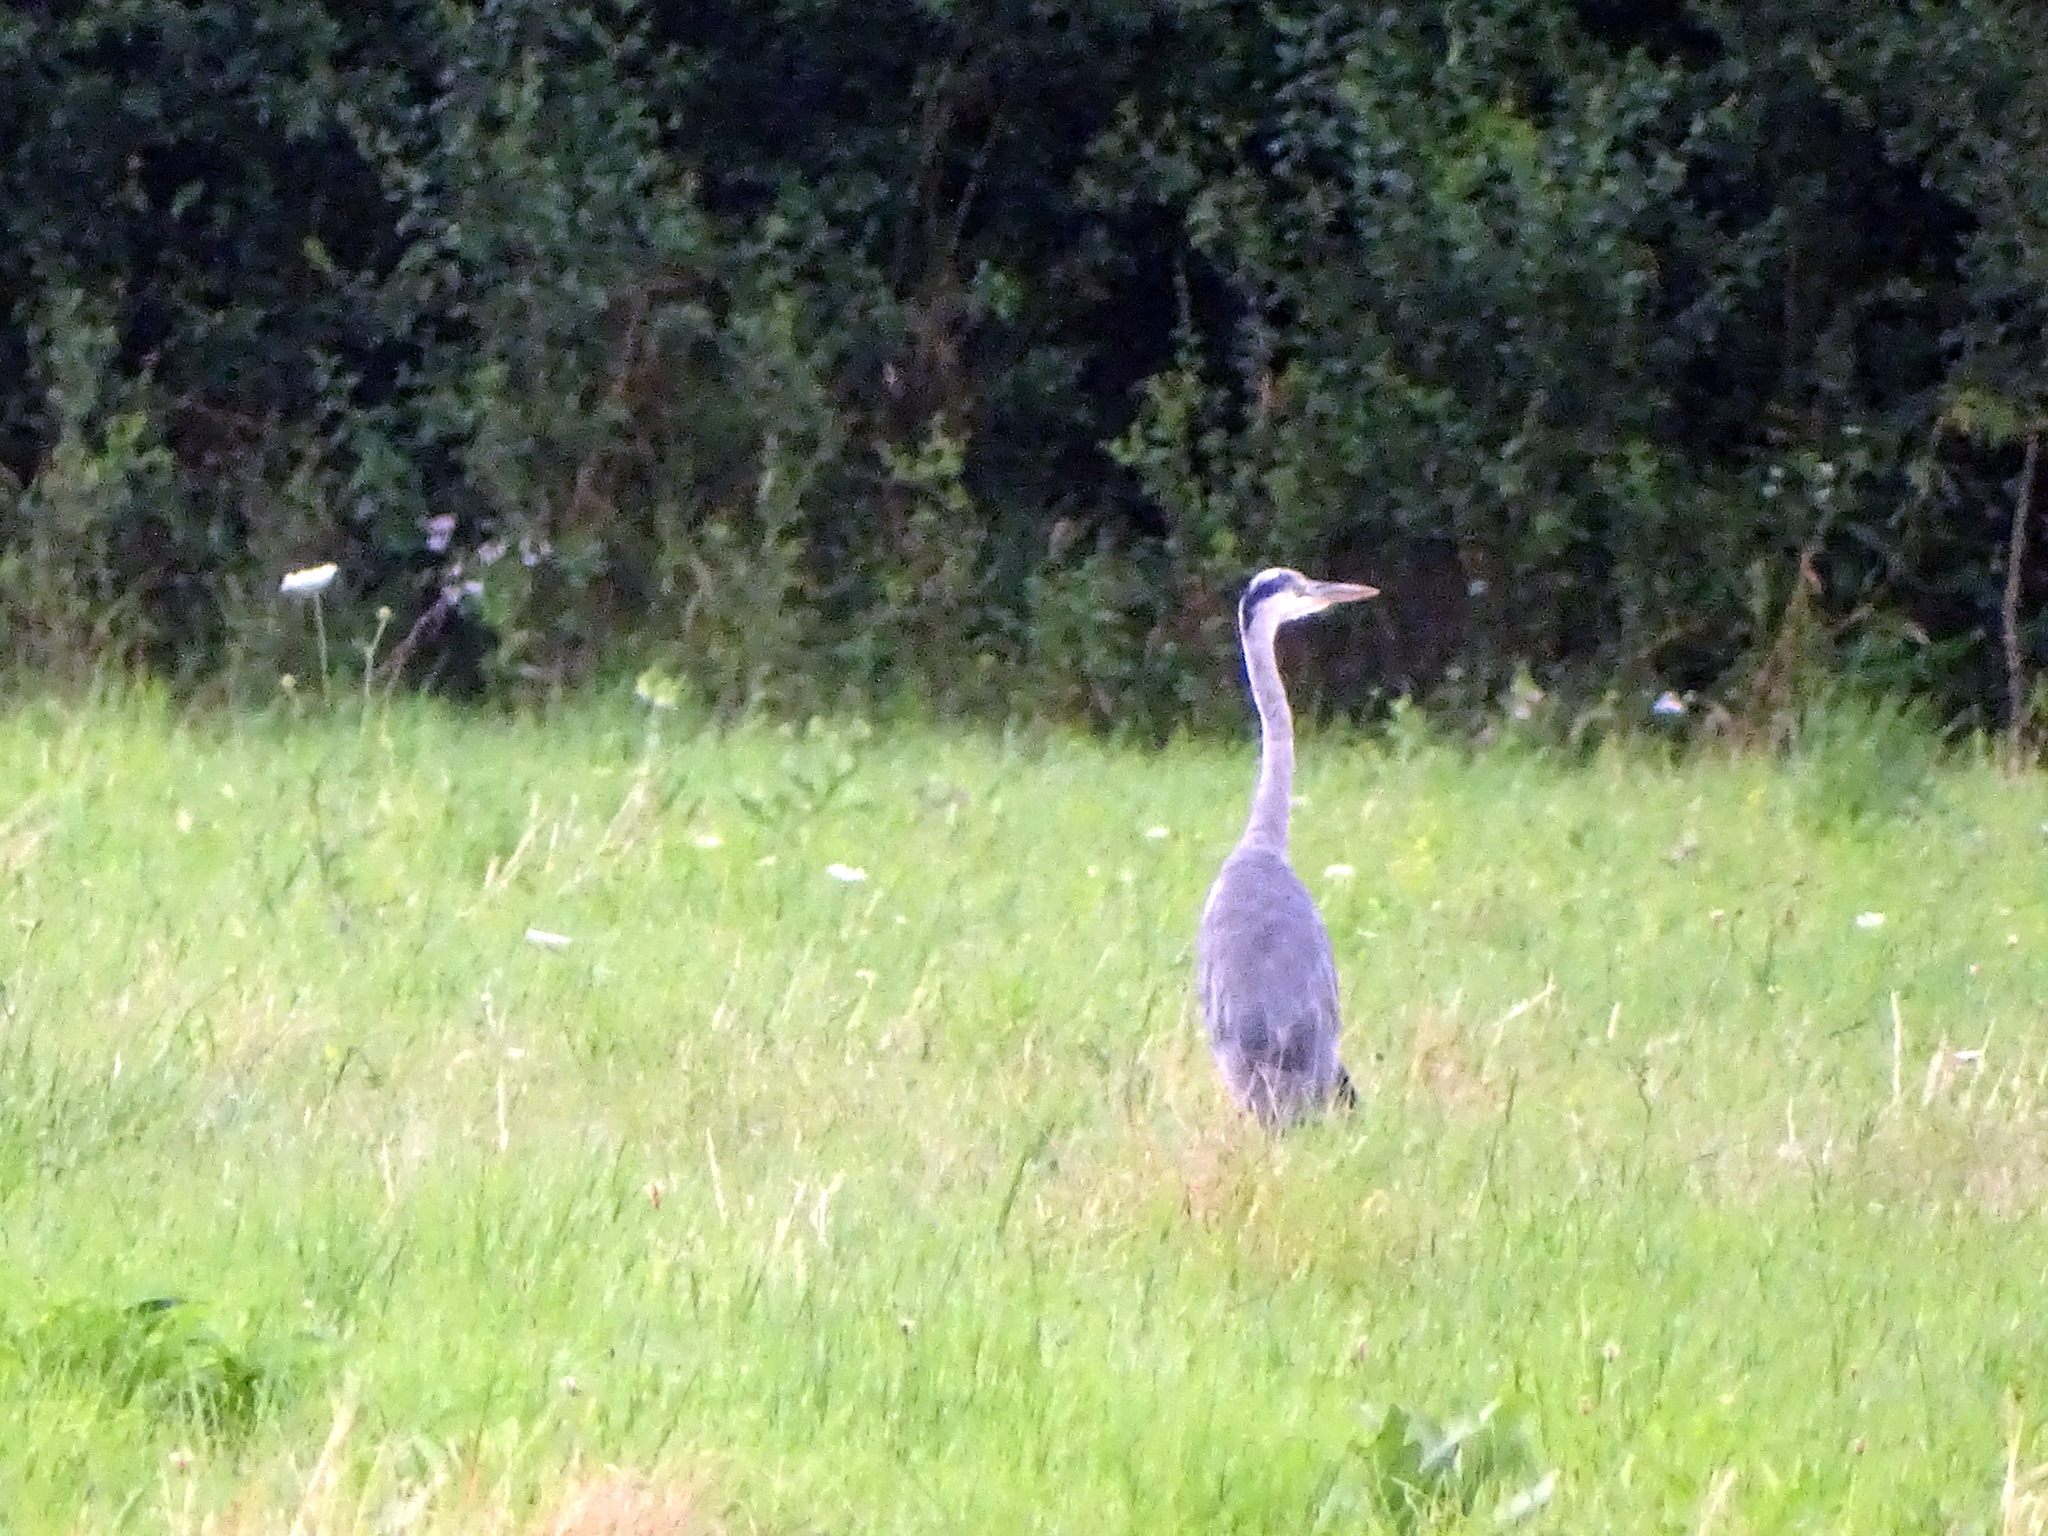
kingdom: Animalia
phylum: Chordata
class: Aves
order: Pelecaniformes
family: Ardeidae
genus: Ardea
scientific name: Ardea cinerea
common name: Grey heron
